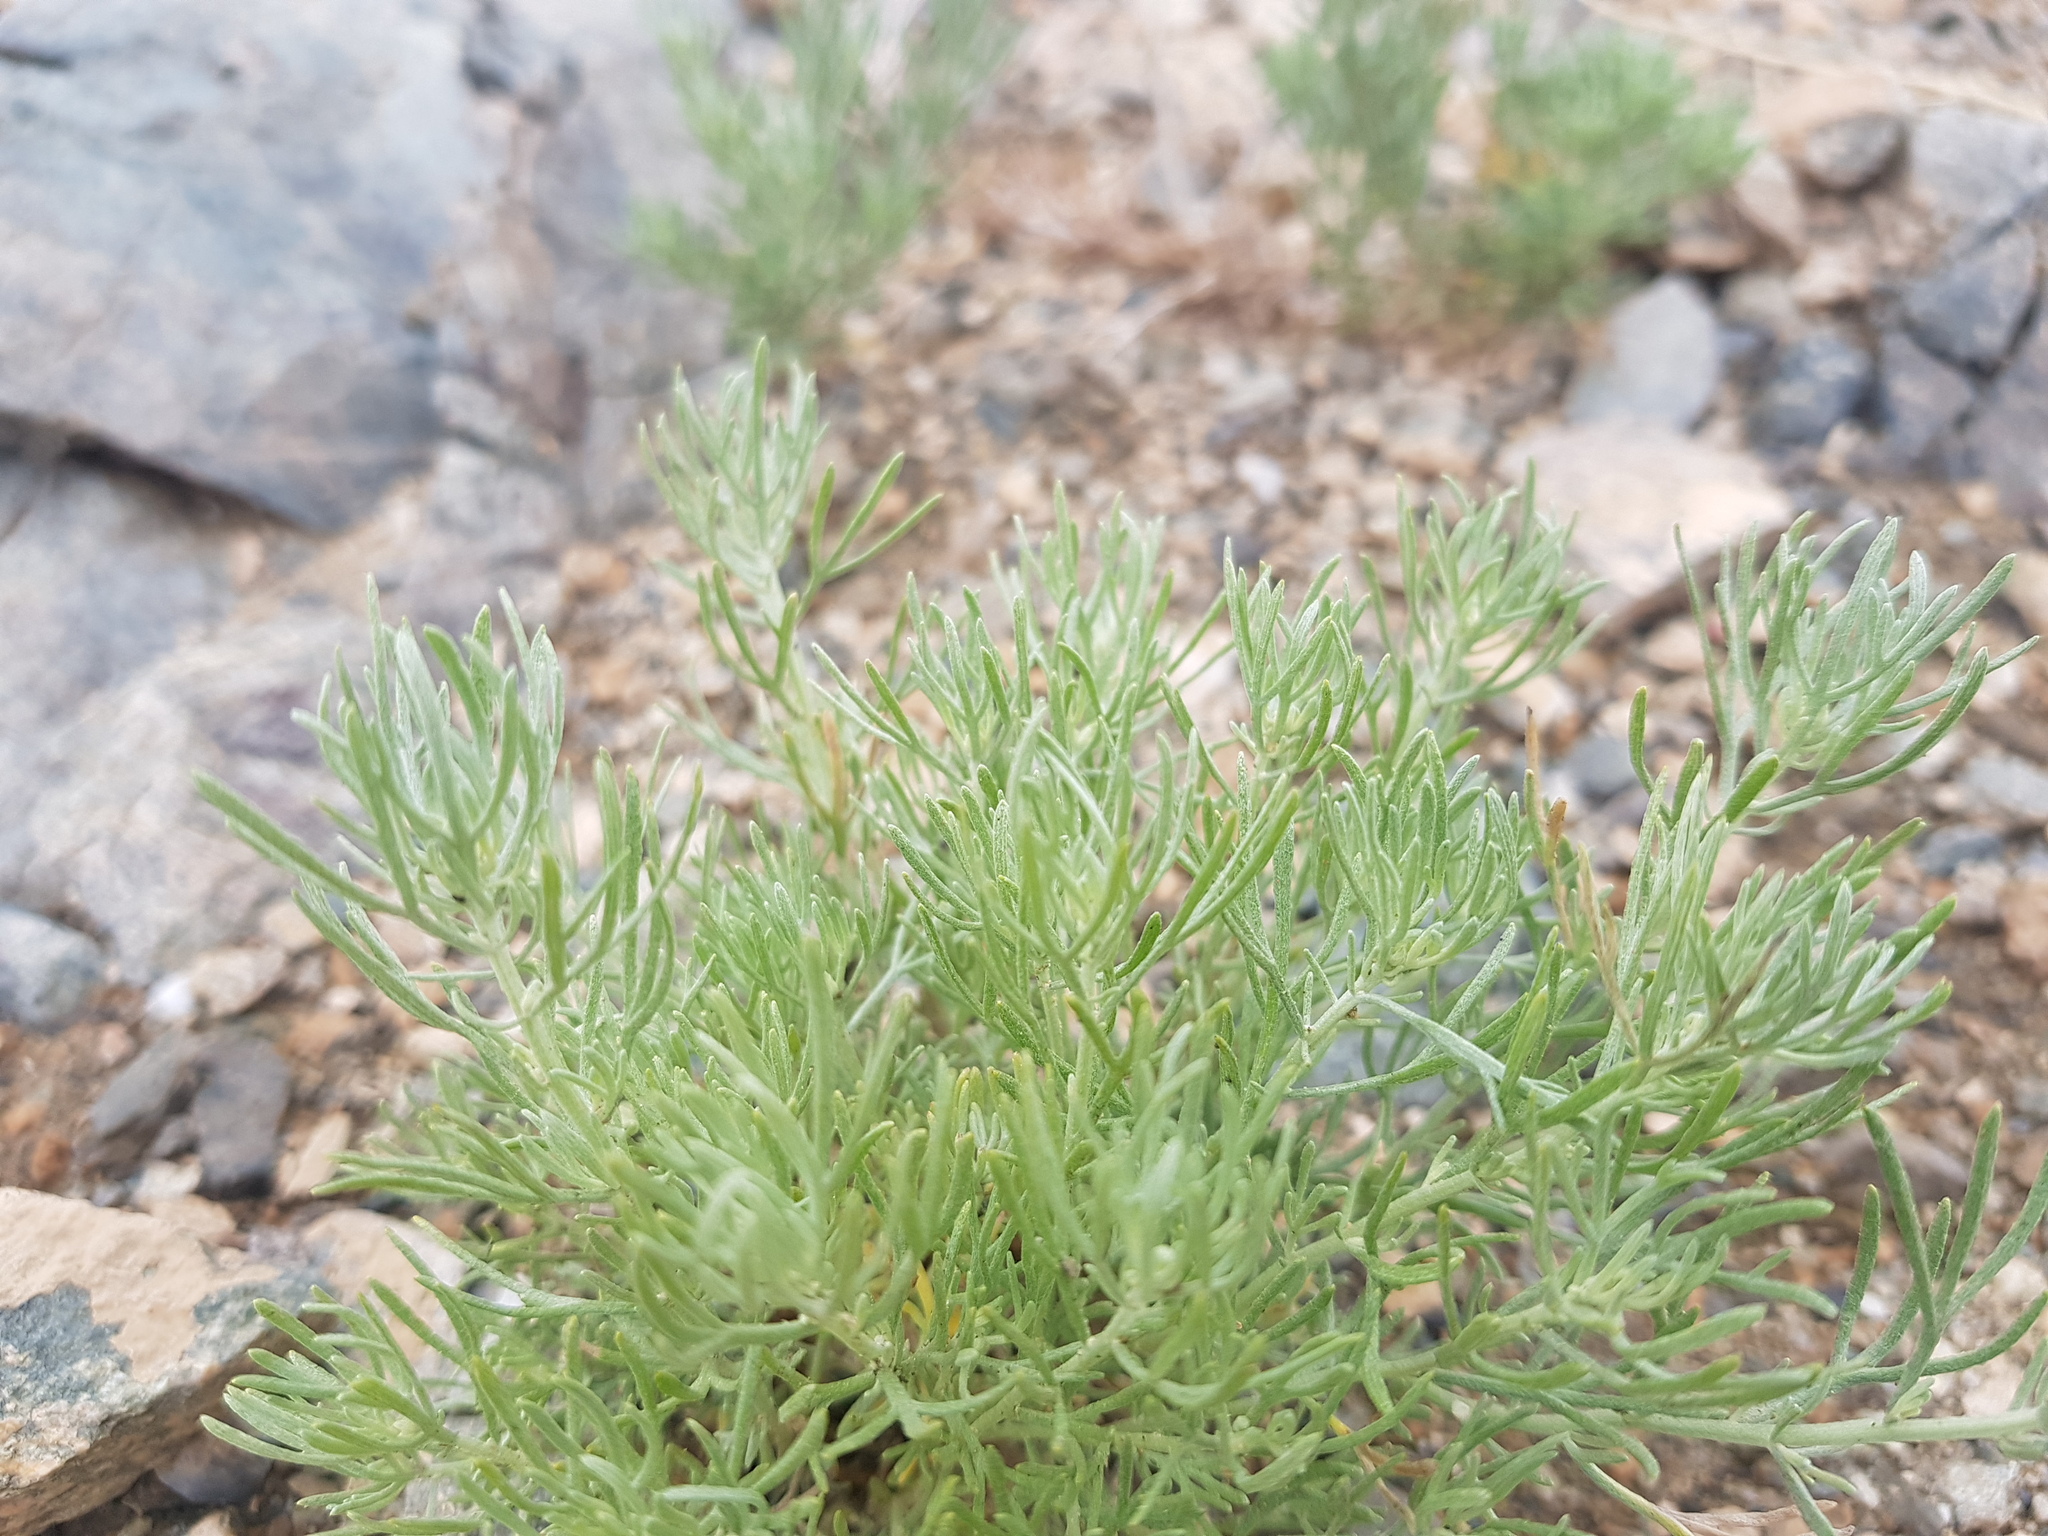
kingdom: Plantae
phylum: Tracheophyta
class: Magnoliopsida
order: Sapindales
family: Tetradiclidaceae
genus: Peganum
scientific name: Peganum harmala
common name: Harmal peganum
